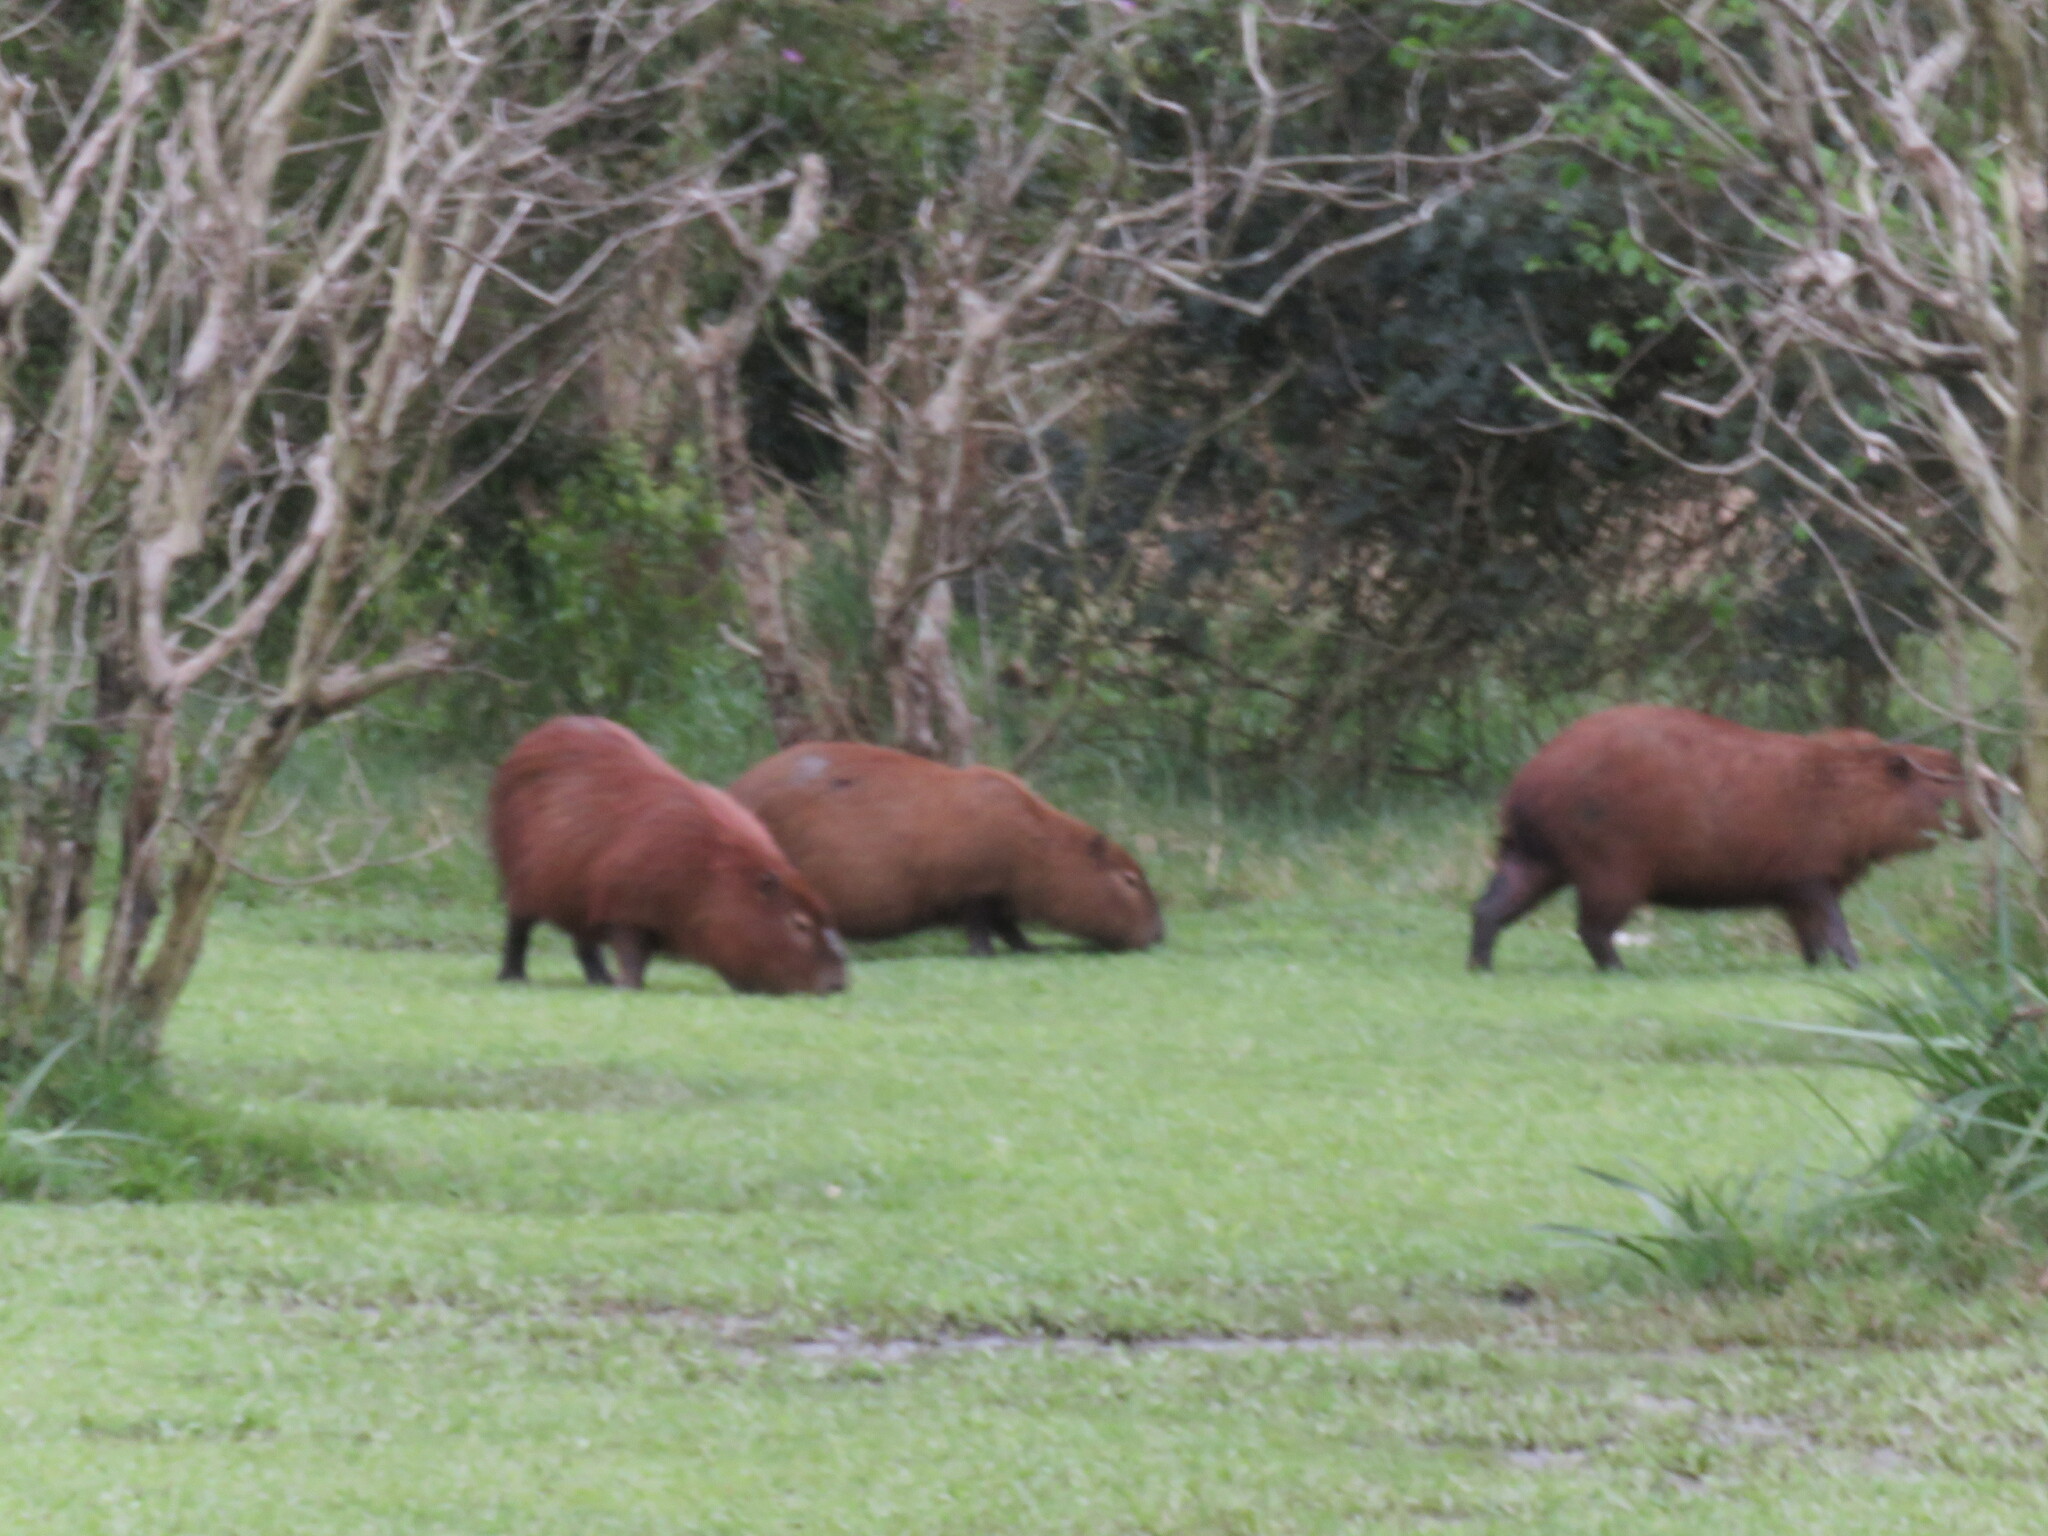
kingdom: Animalia
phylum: Chordata
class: Mammalia
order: Rodentia
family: Caviidae
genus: Hydrochoerus
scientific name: Hydrochoerus hydrochaeris
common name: Capybara
